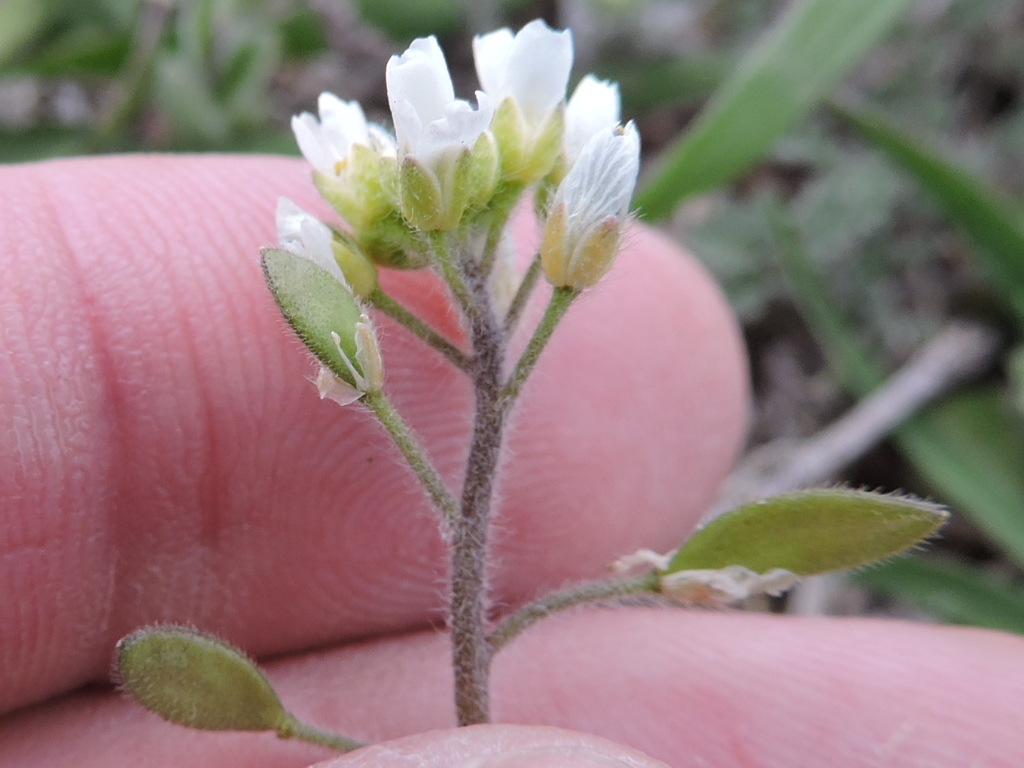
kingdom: Plantae
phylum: Tracheophyta
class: Magnoliopsida
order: Brassicales
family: Brassicaceae
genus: Tomostima
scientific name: Tomostima platycarpa
